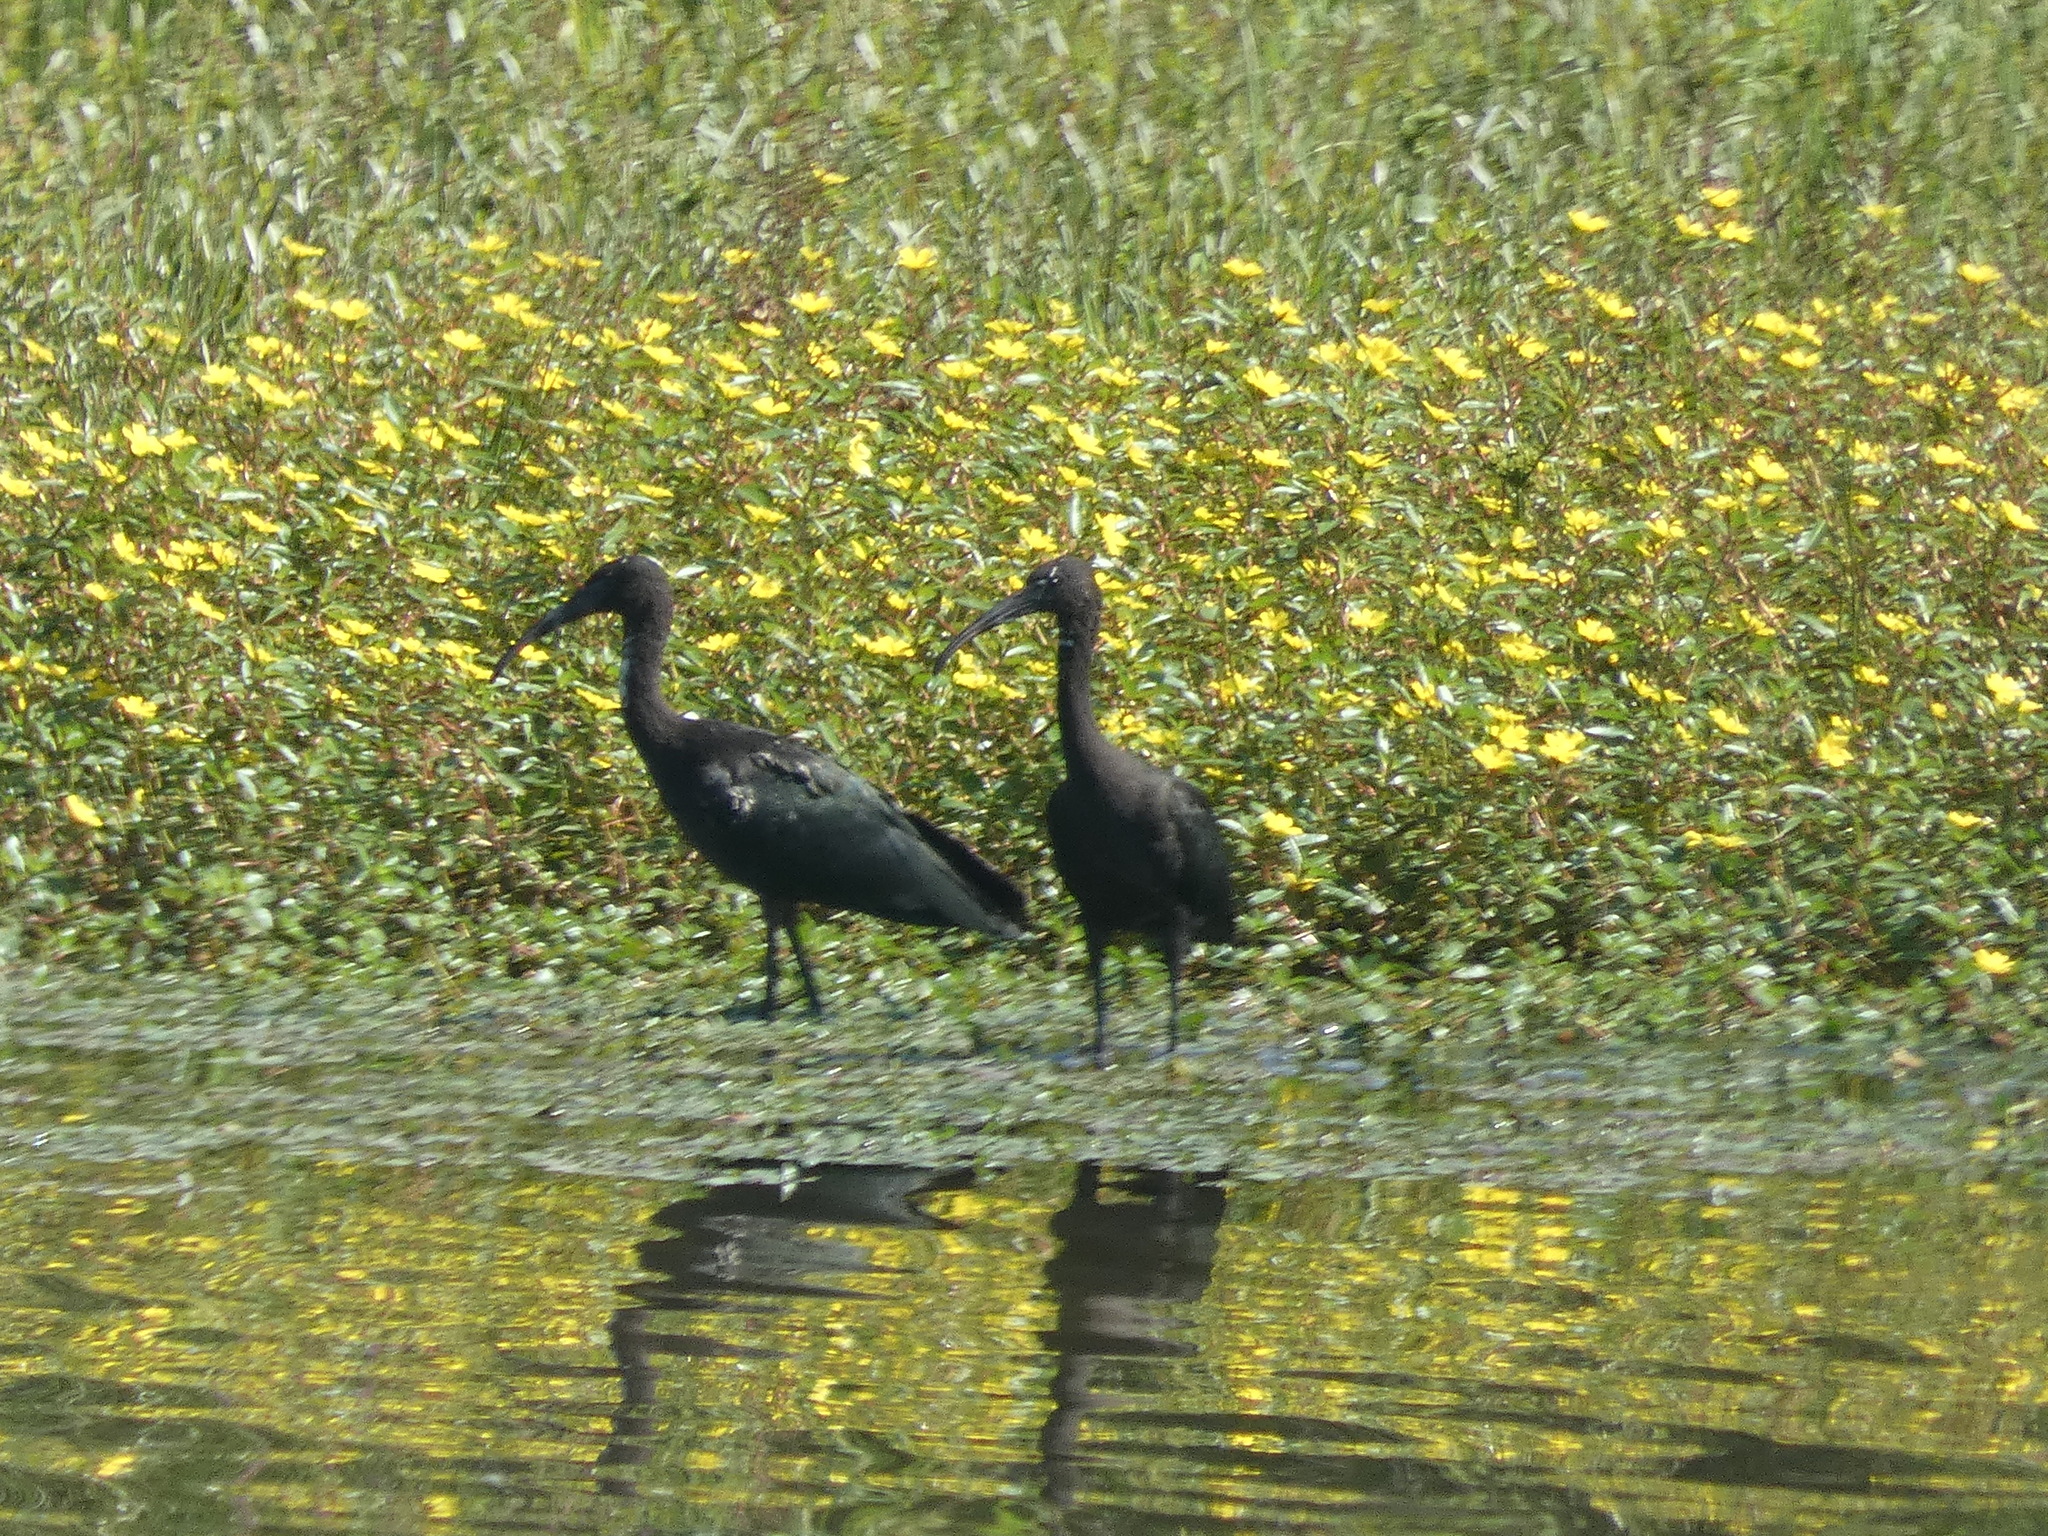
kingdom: Animalia
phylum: Chordata
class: Aves
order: Pelecaniformes
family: Threskiornithidae
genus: Plegadis
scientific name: Plegadis falcinellus
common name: Glossy ibis
